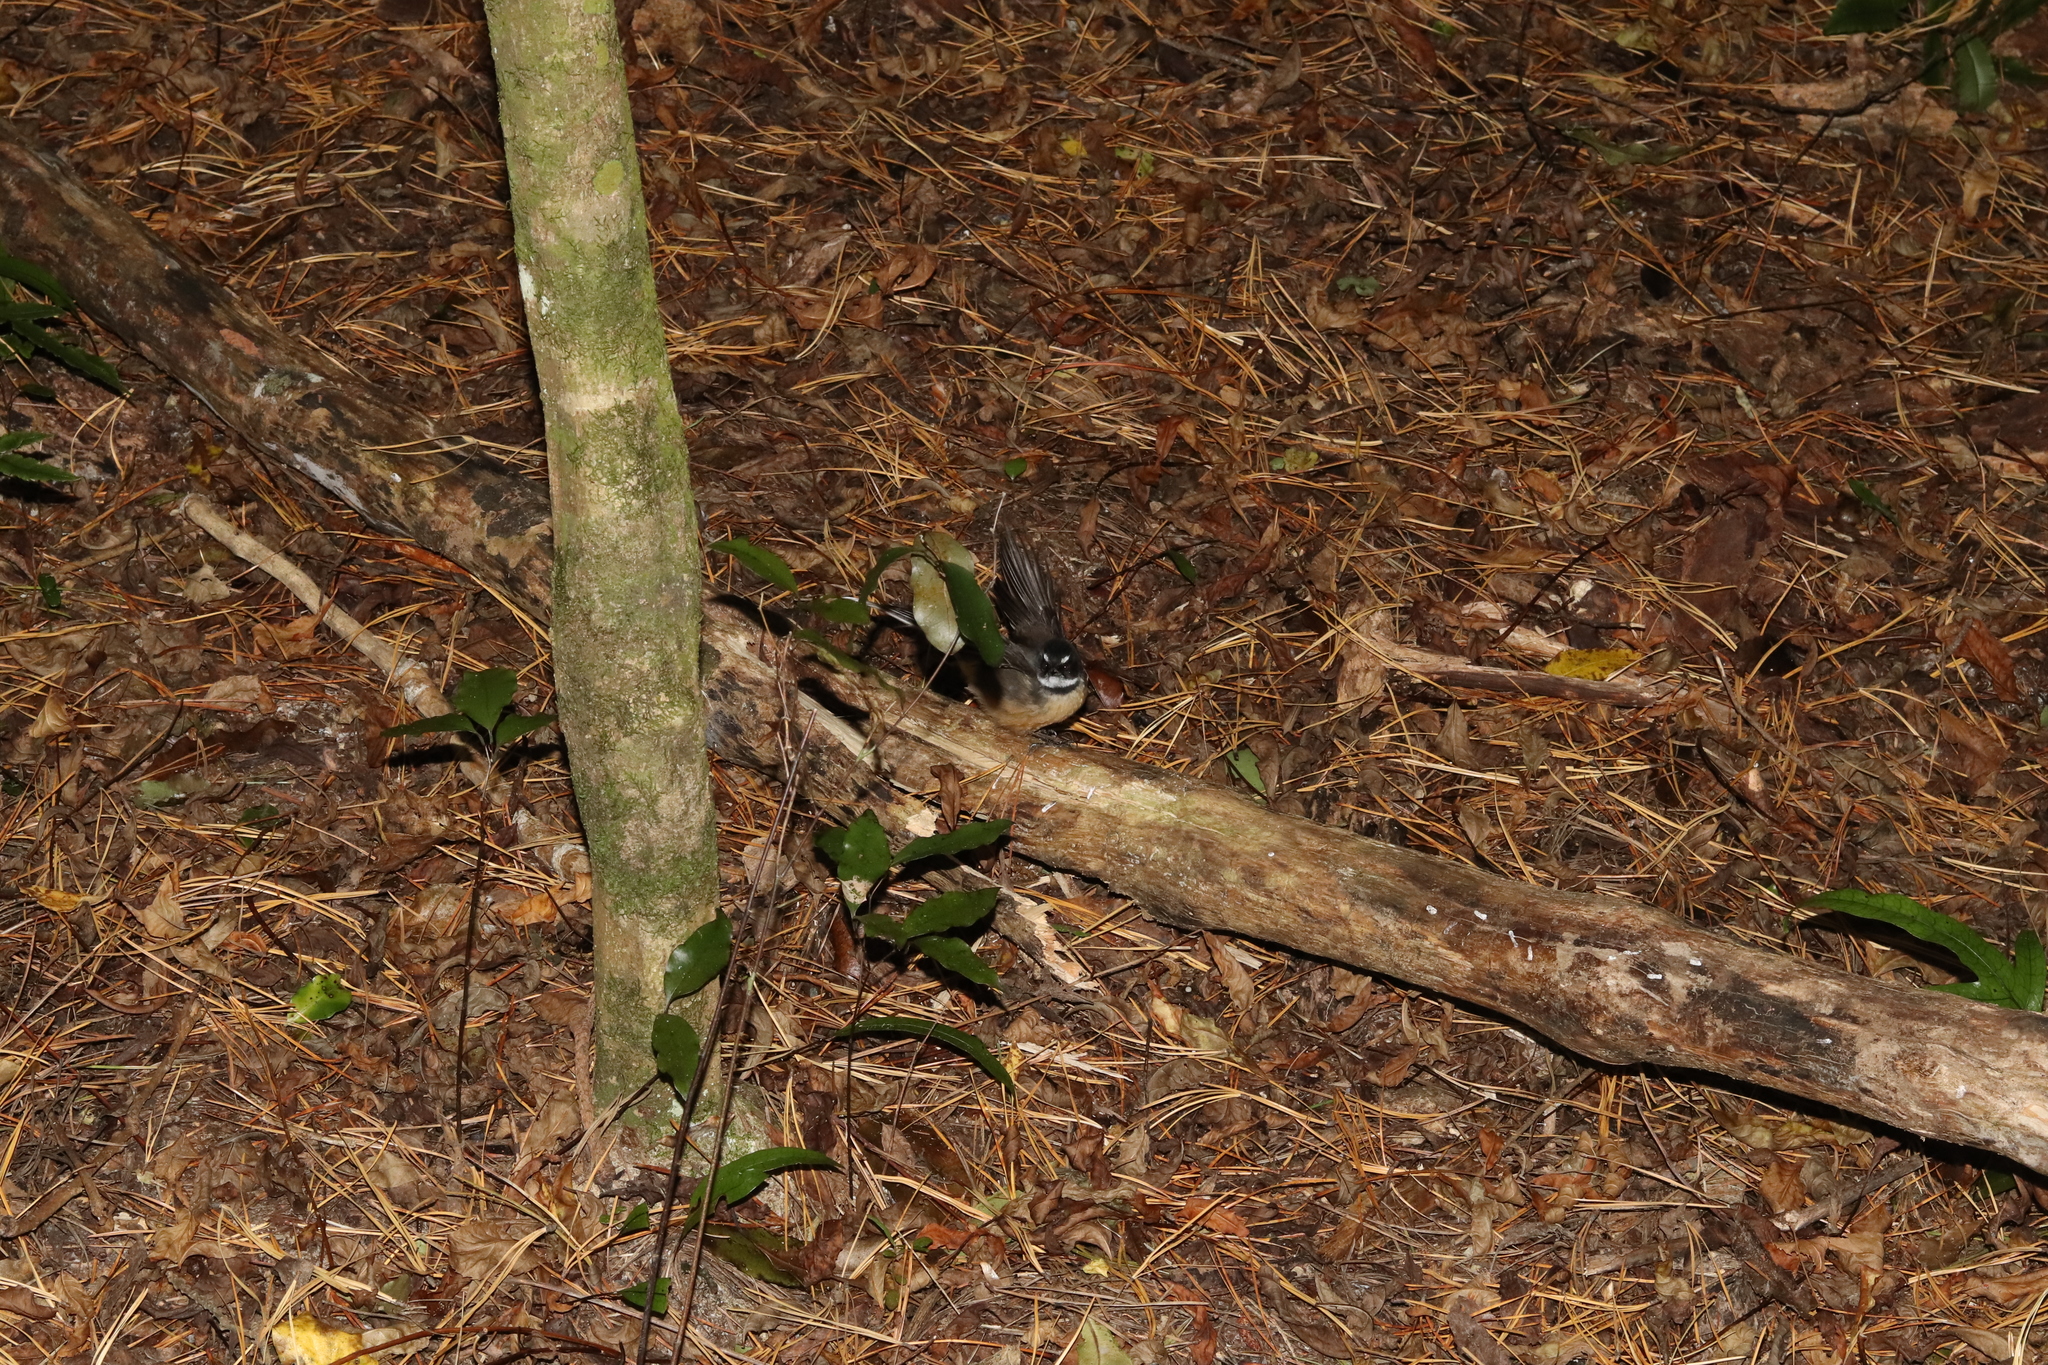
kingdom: Animalia
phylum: Chordata
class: Aves
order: Passeriformes
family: Rhipiduridae
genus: Rhipidura
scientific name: Rhipidura fuliginosa
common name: New zealand fantail
